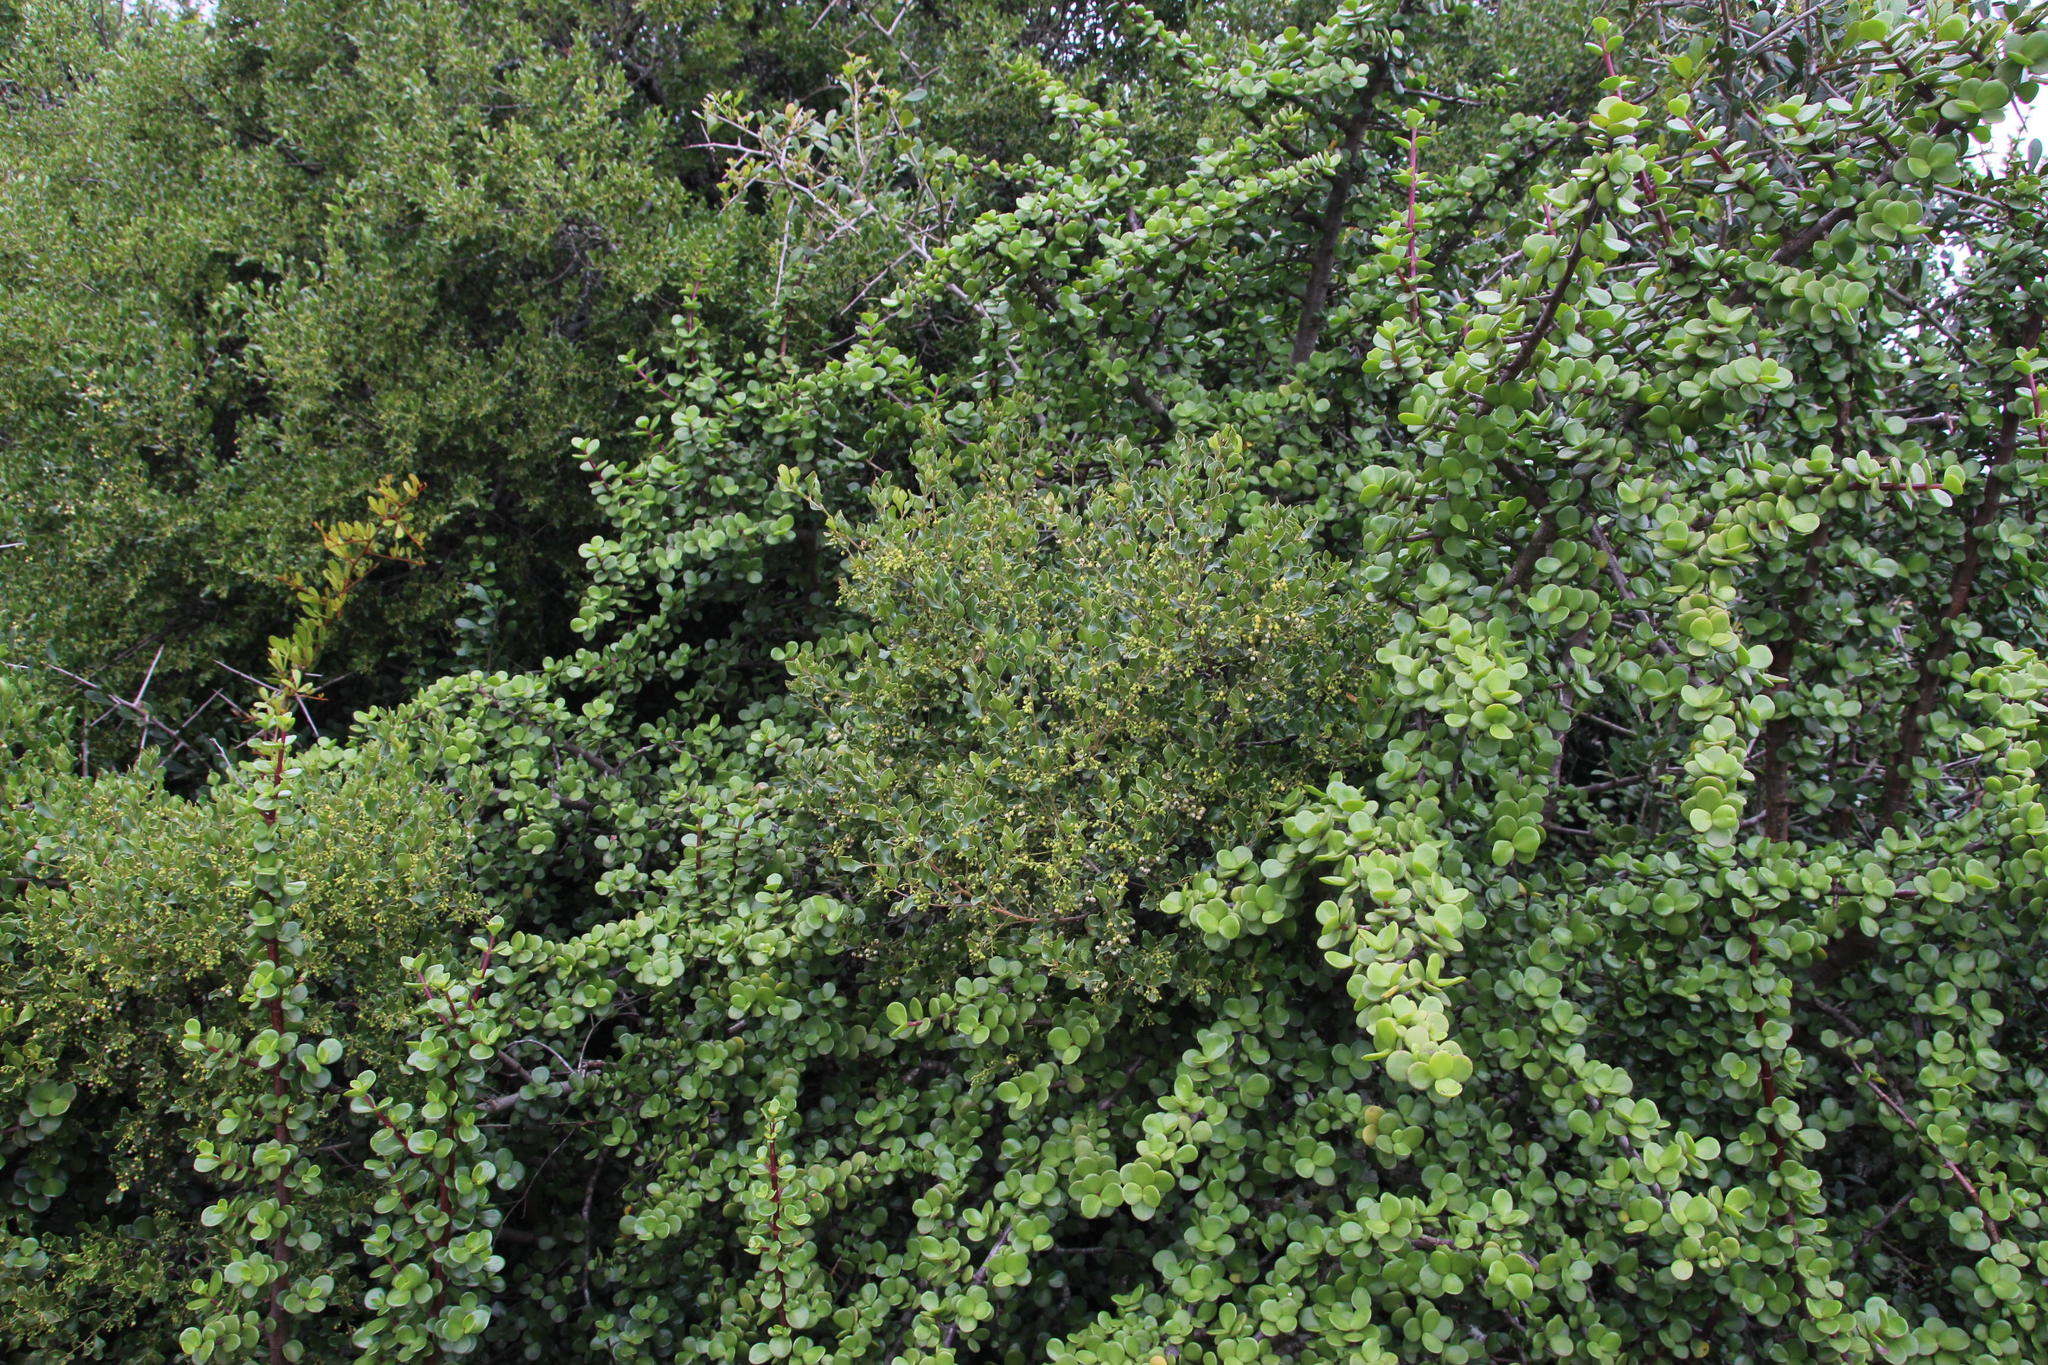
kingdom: Plantae
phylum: Tracheophyta
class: Magnoliopsida
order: Ericales
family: Ebenaceae
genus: Euclea
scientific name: Euclea undulata
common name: Small-leaved guarri
